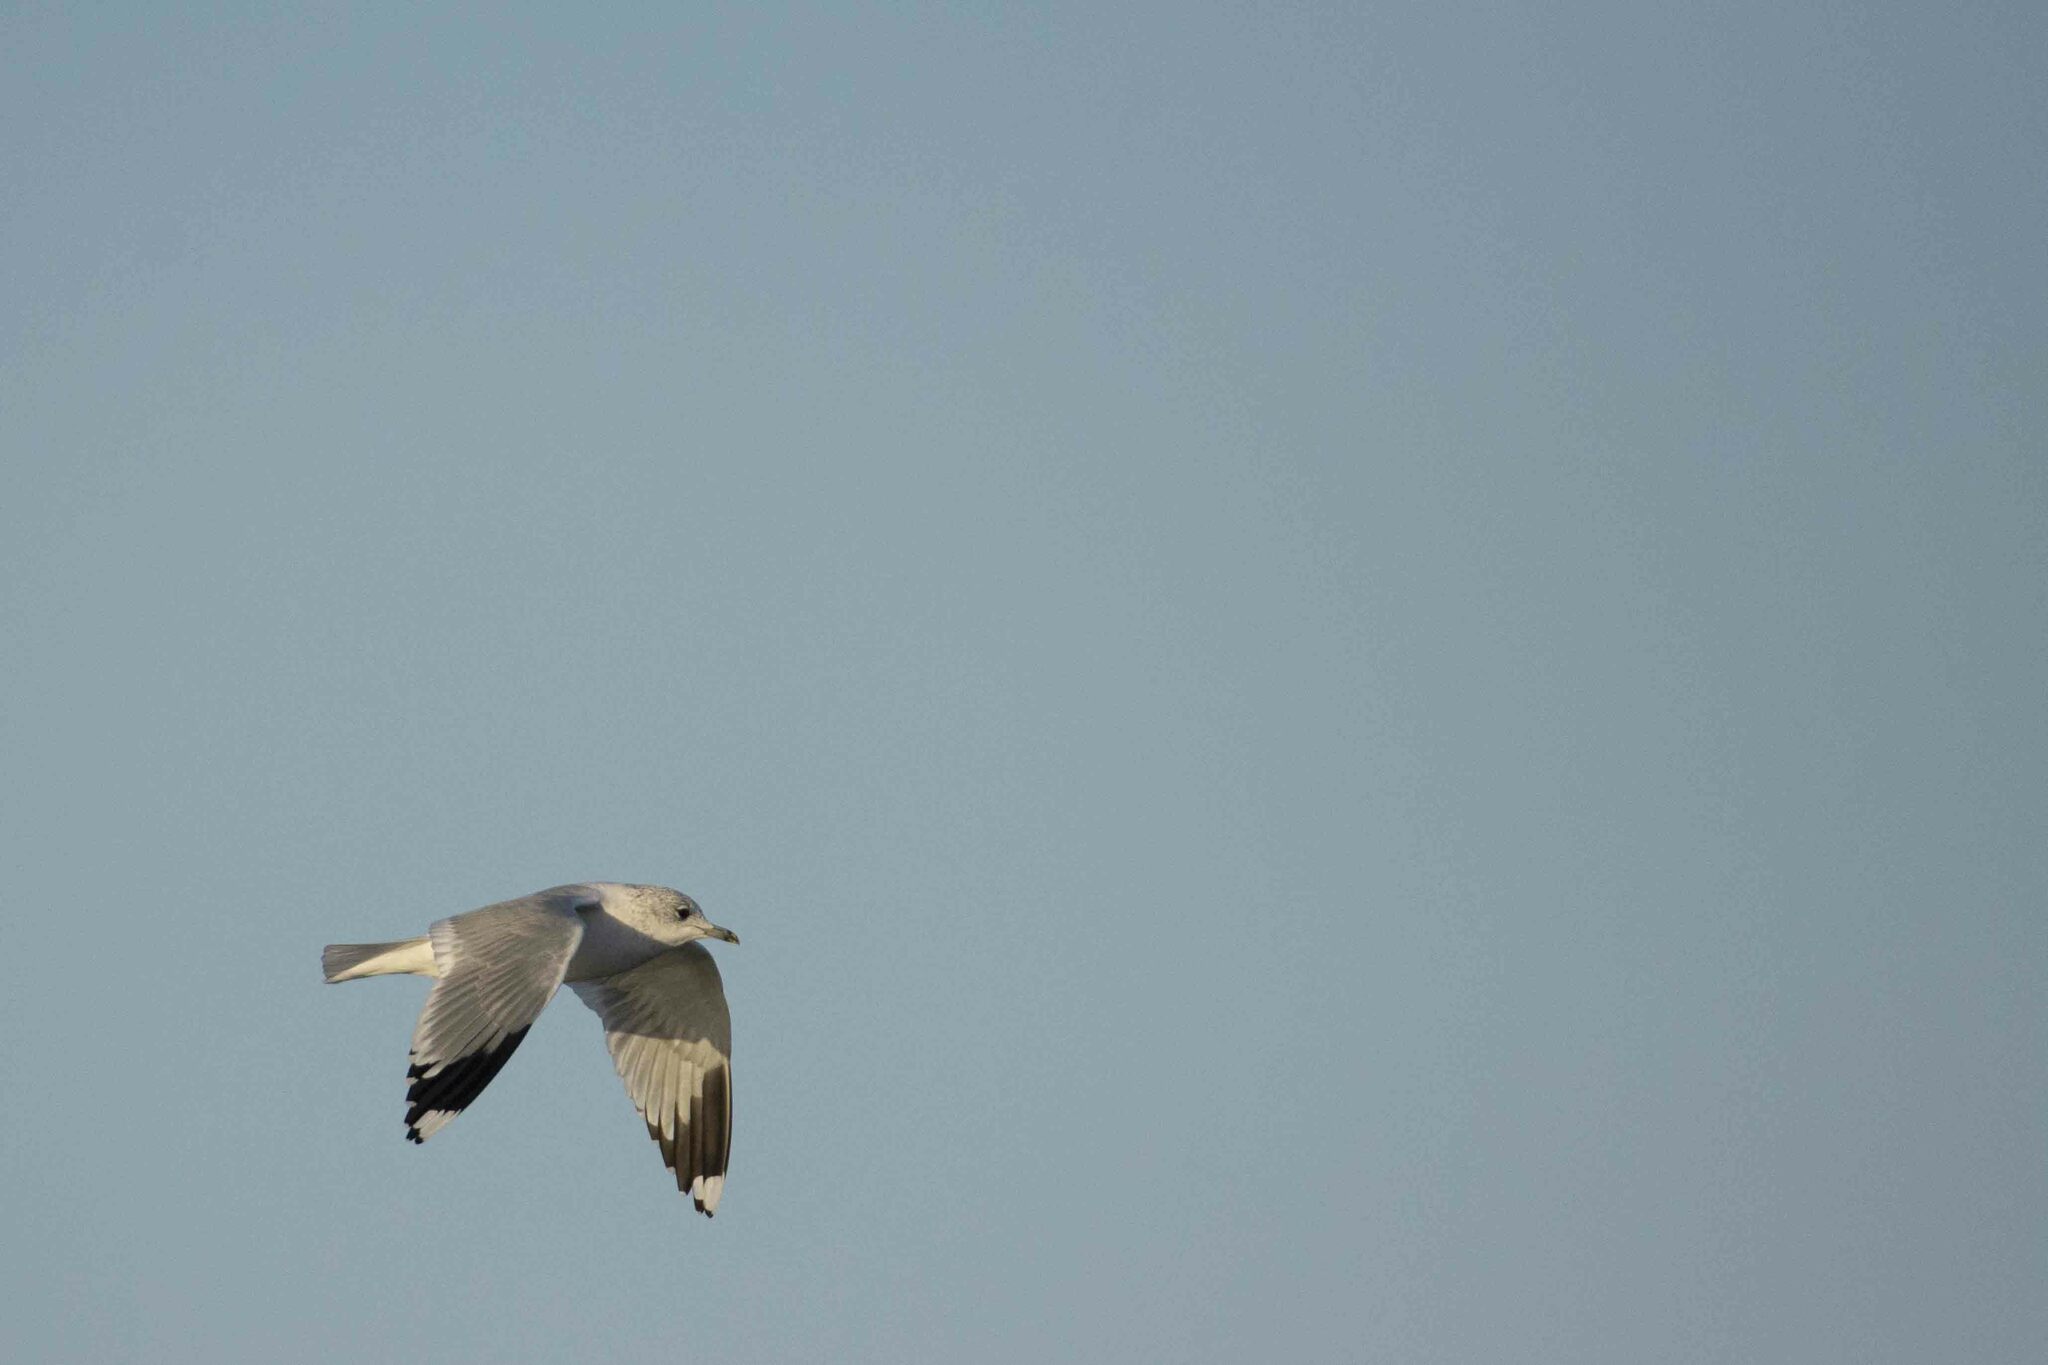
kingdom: Animalia
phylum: Chordata
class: Aves
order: Charadriiformes
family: Laridae
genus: Larus
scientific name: Larus canus
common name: Mew gull
